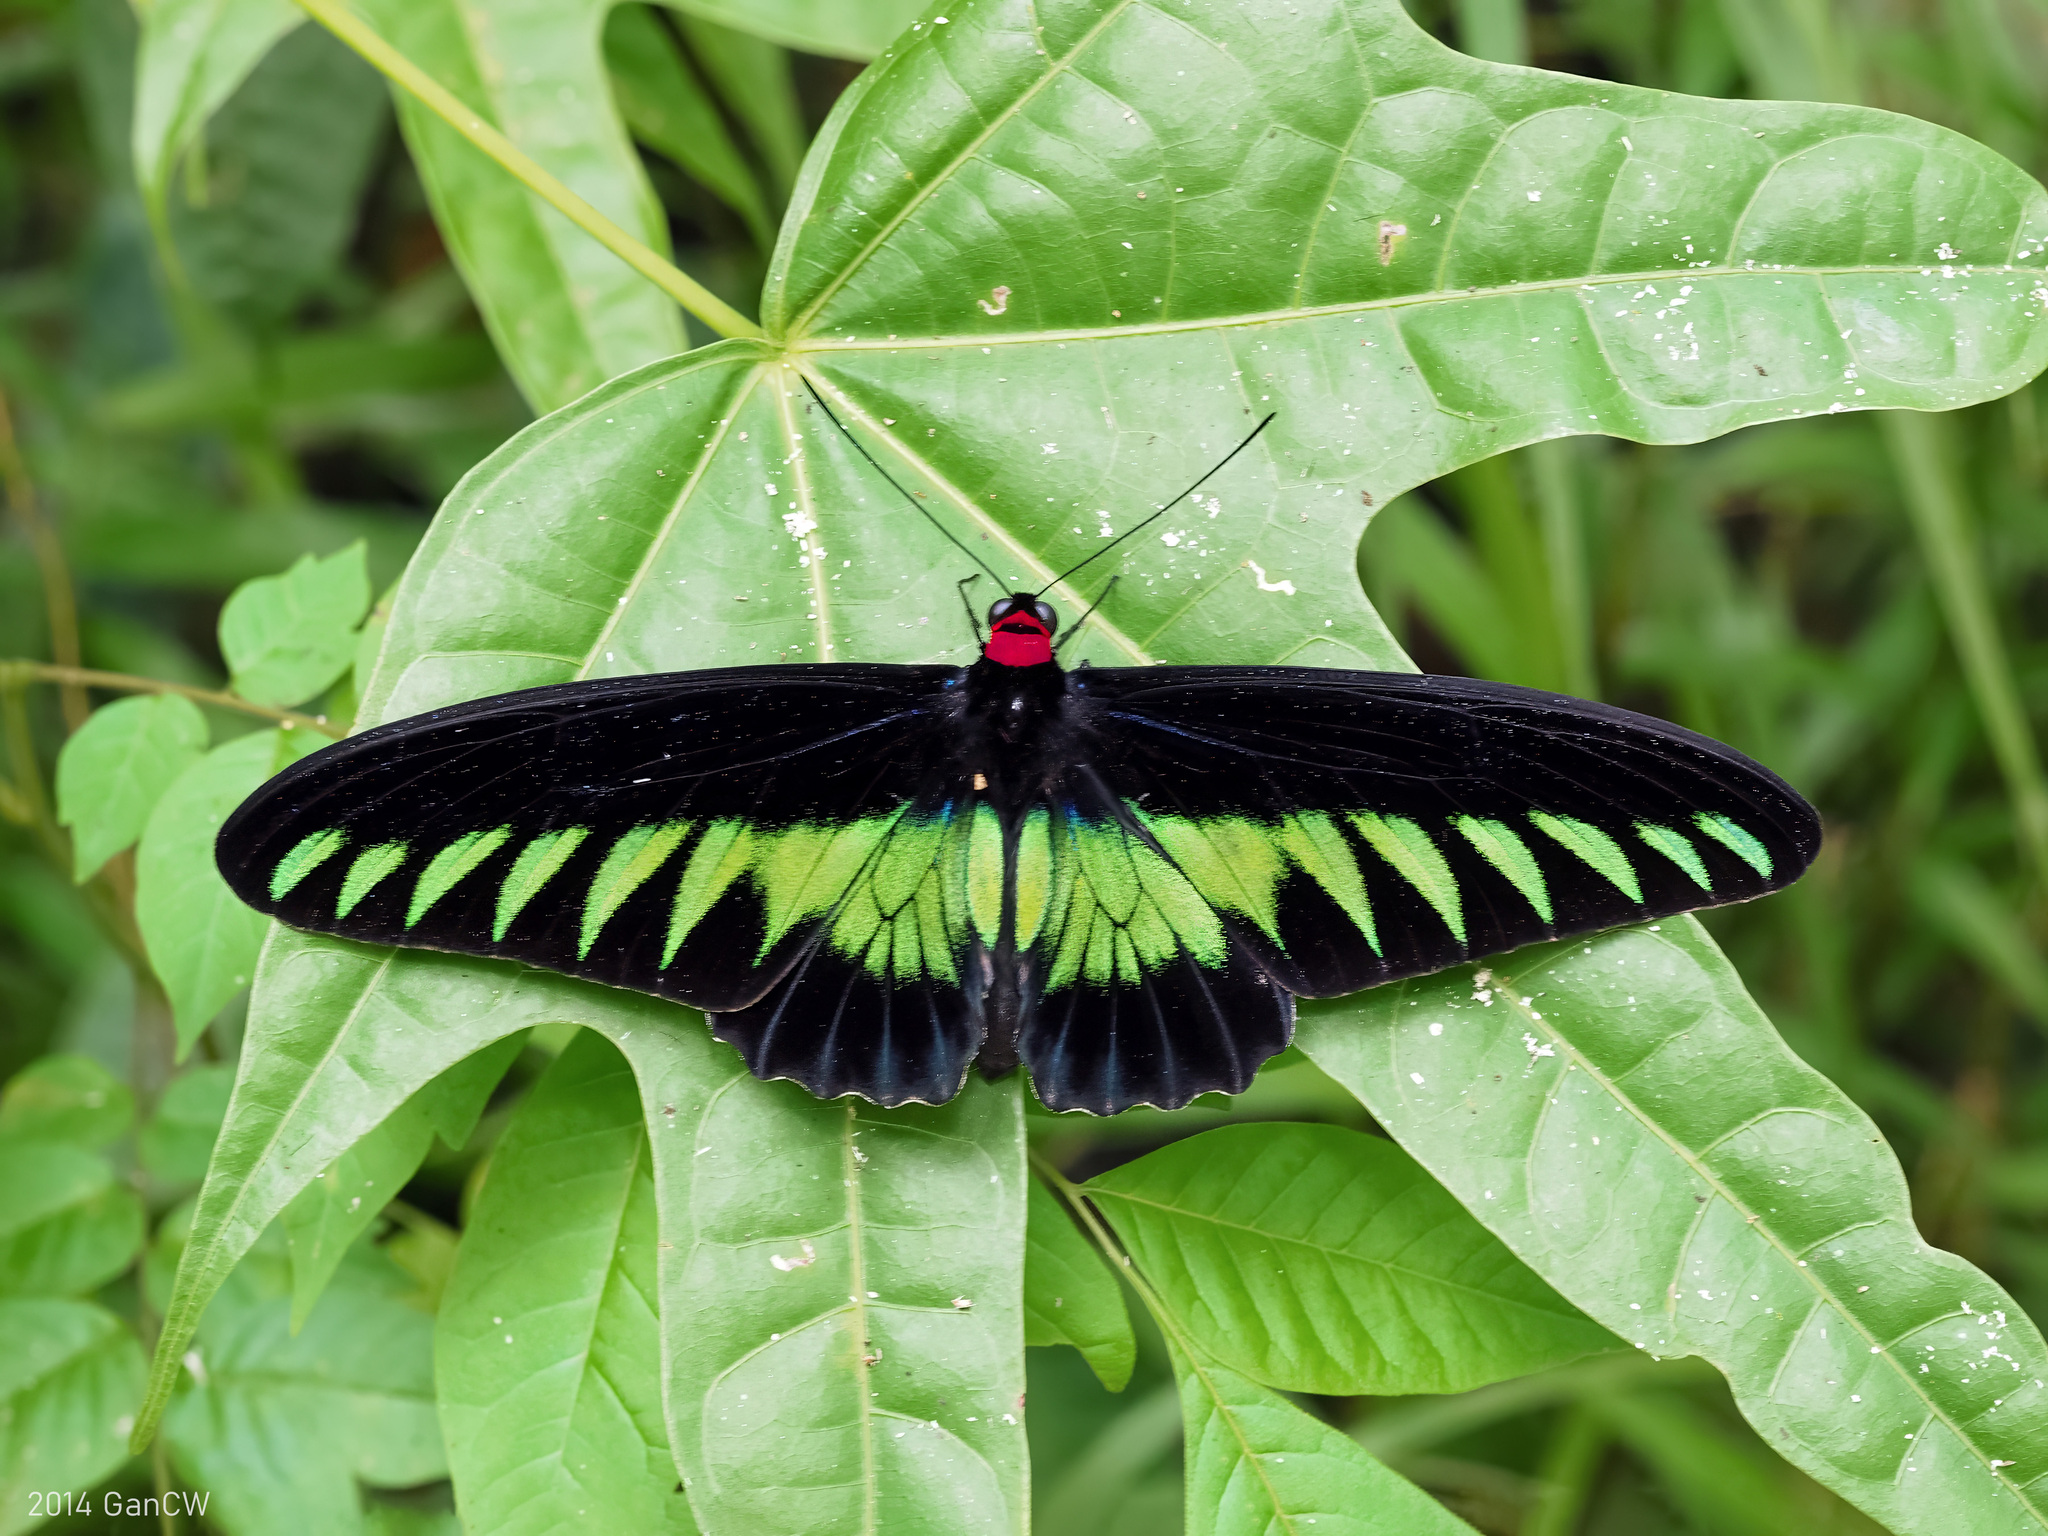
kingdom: Animalia
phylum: Arthropoda
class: Insecta
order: Lepidoptera
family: Papilionidae
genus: Trogonoptera
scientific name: Trogonoptera brookiana
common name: Raja brooke's birdwing
